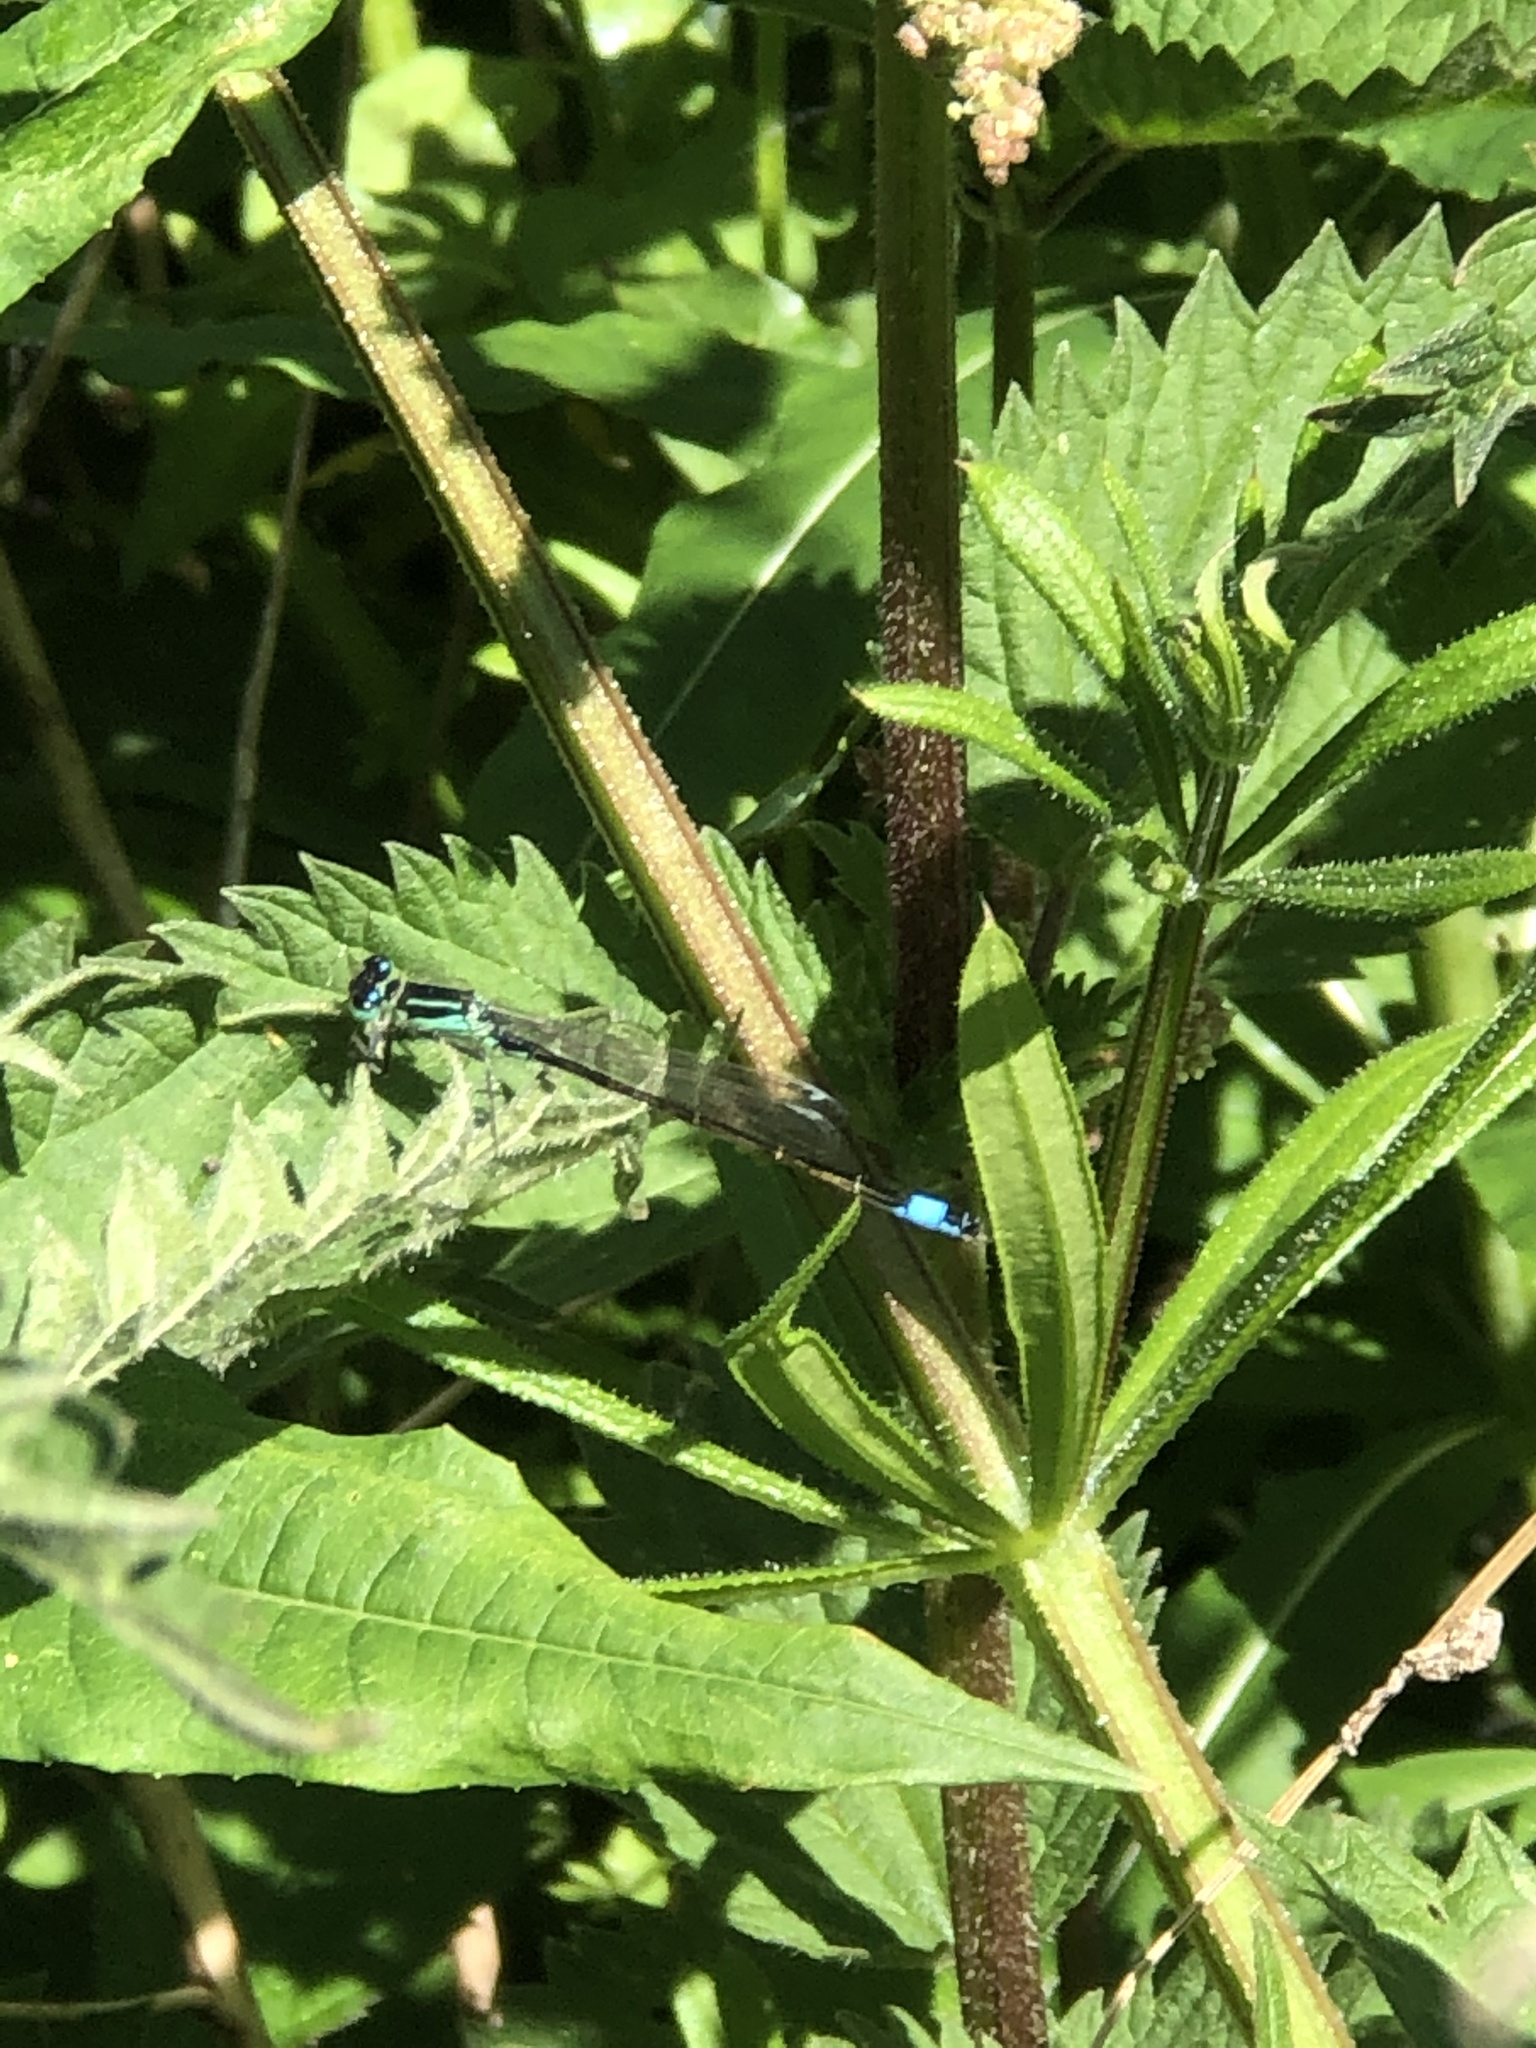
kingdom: Animalia
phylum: Arthropoda
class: Insecta
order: Odonata
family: Coenagrionidae
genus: Ischnura
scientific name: Ischnura elegans
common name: Blue-tailed damselfly
